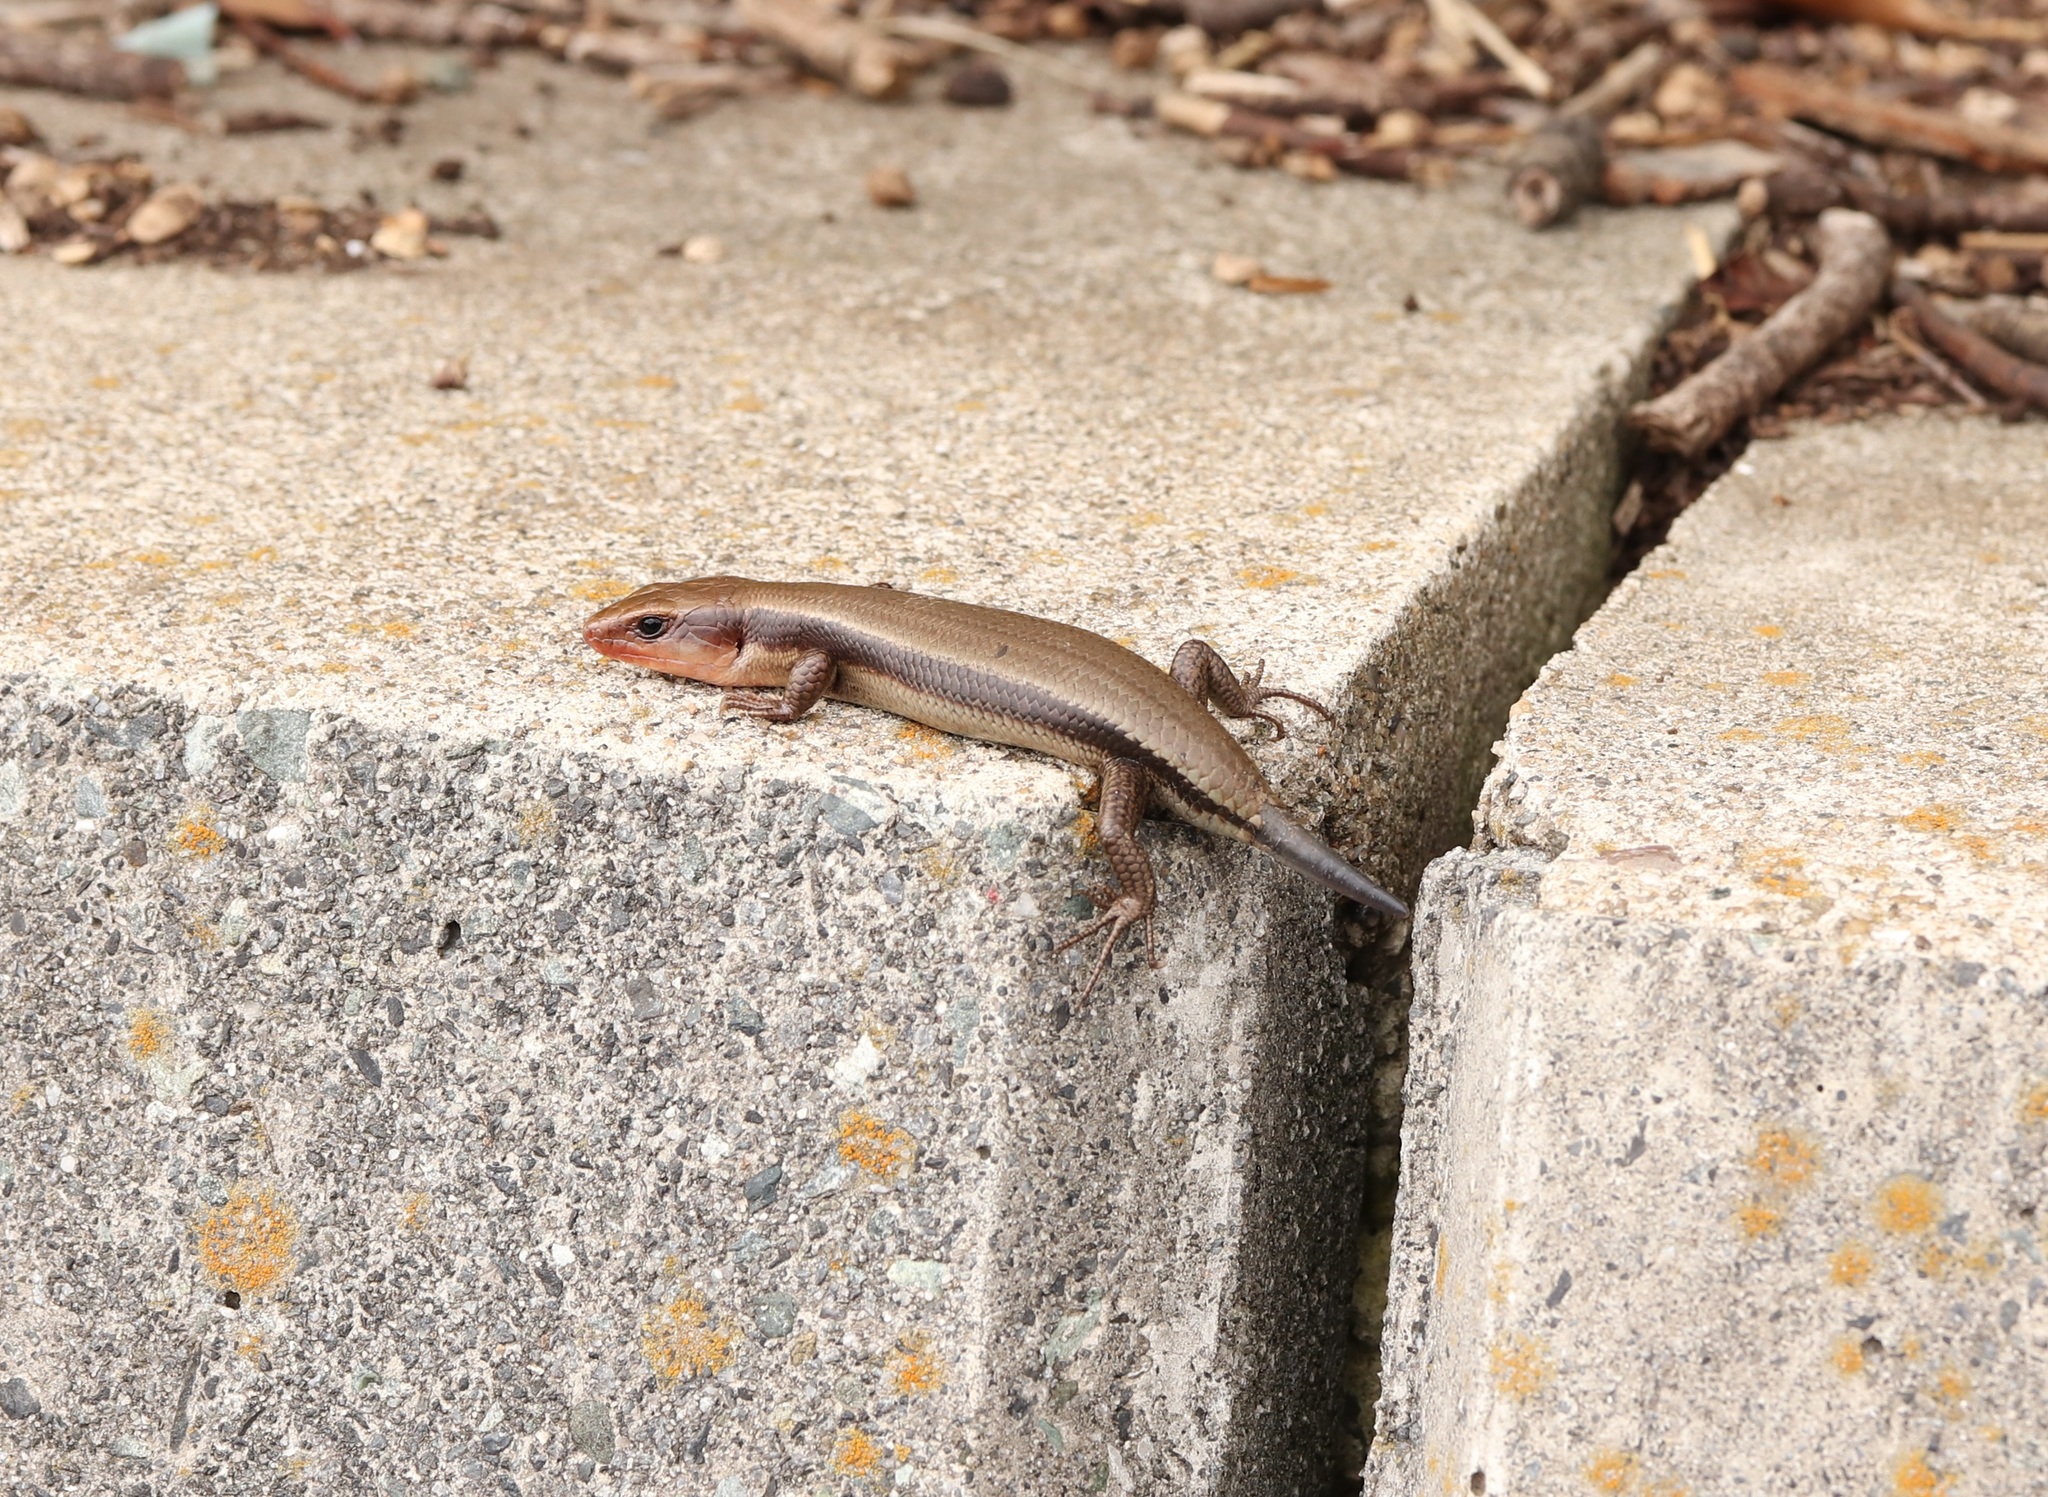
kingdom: Animalia
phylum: Chordata
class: Squamata
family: Scincidae
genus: Plestiodon
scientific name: Plestiodon finitimus
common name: Far eastern skink
